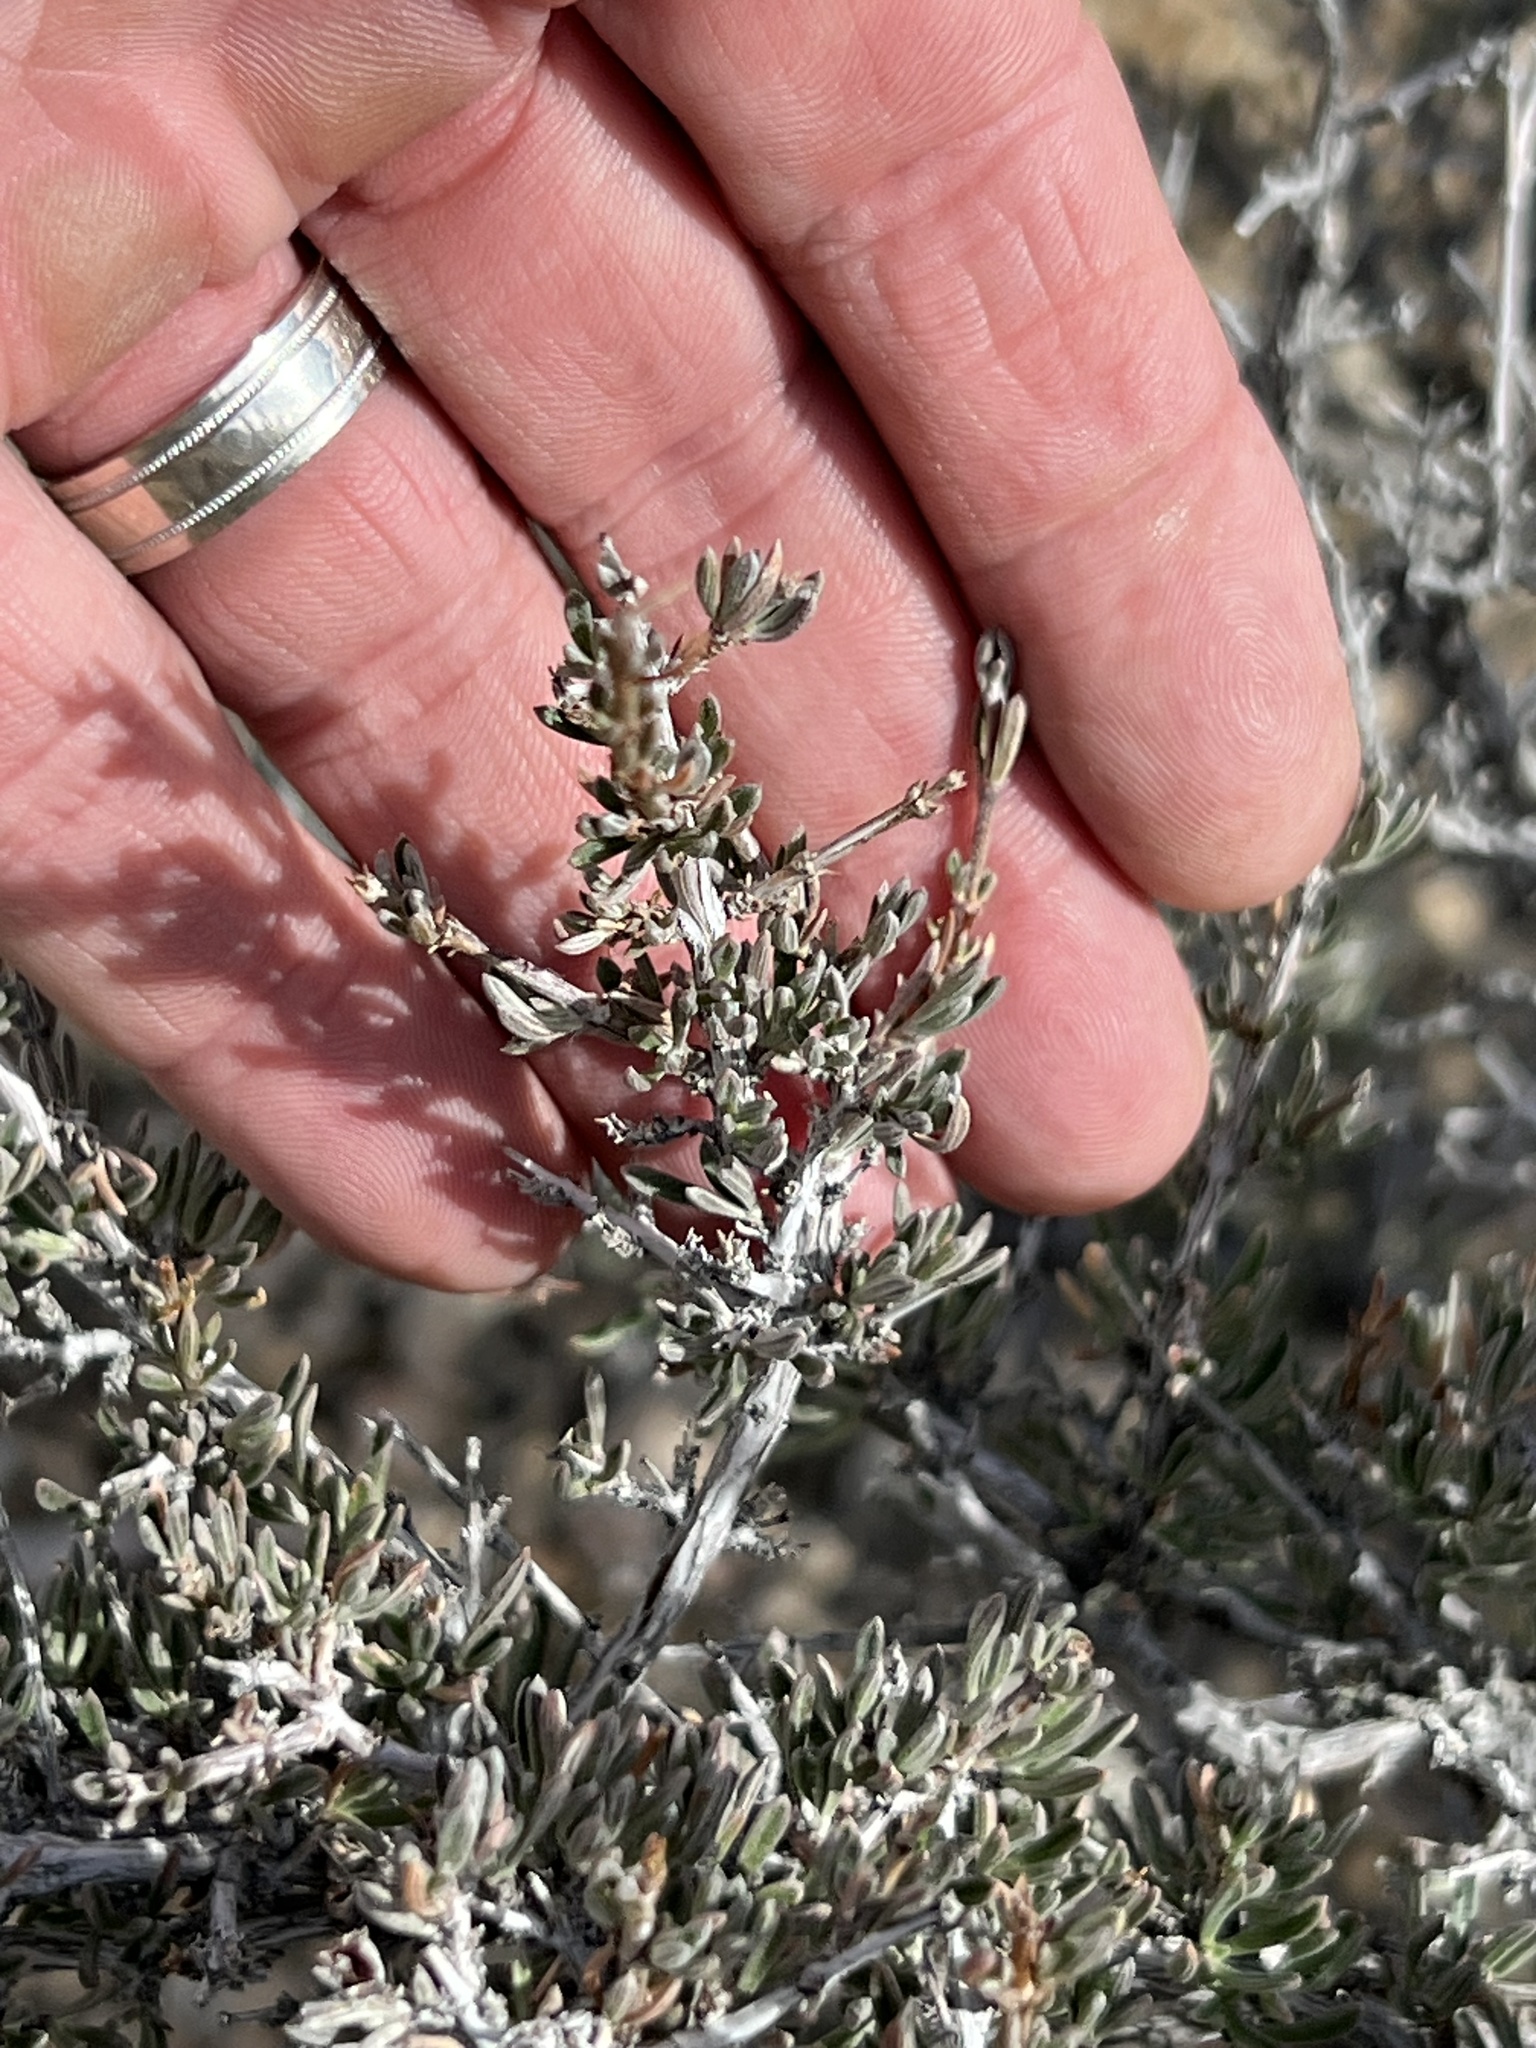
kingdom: Plantae
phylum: Tracheophyta
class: Magnoliopsida
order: Rosales
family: Rosaceae
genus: Coleogyne
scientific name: Coleogyne ramosissima
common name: Blackbrush
